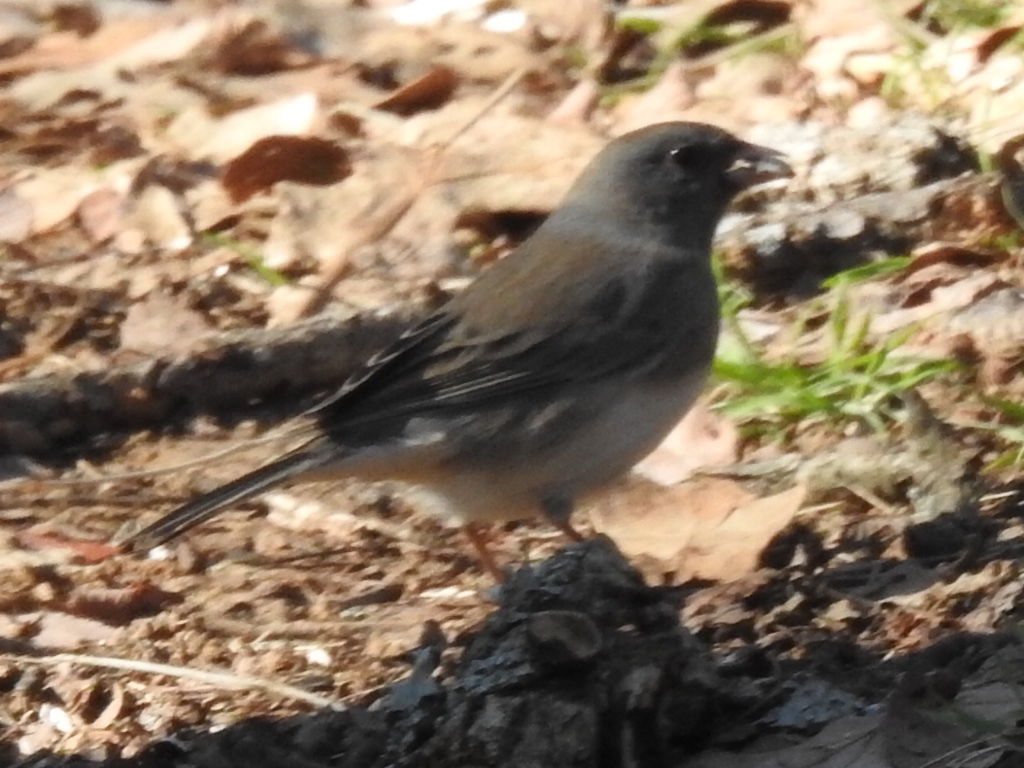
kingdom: Animalia
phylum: Chordata
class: Aves
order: Passeriformes
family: Passerellidae
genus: Junco
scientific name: Junco hyemalis
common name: Dark-eyed junco
